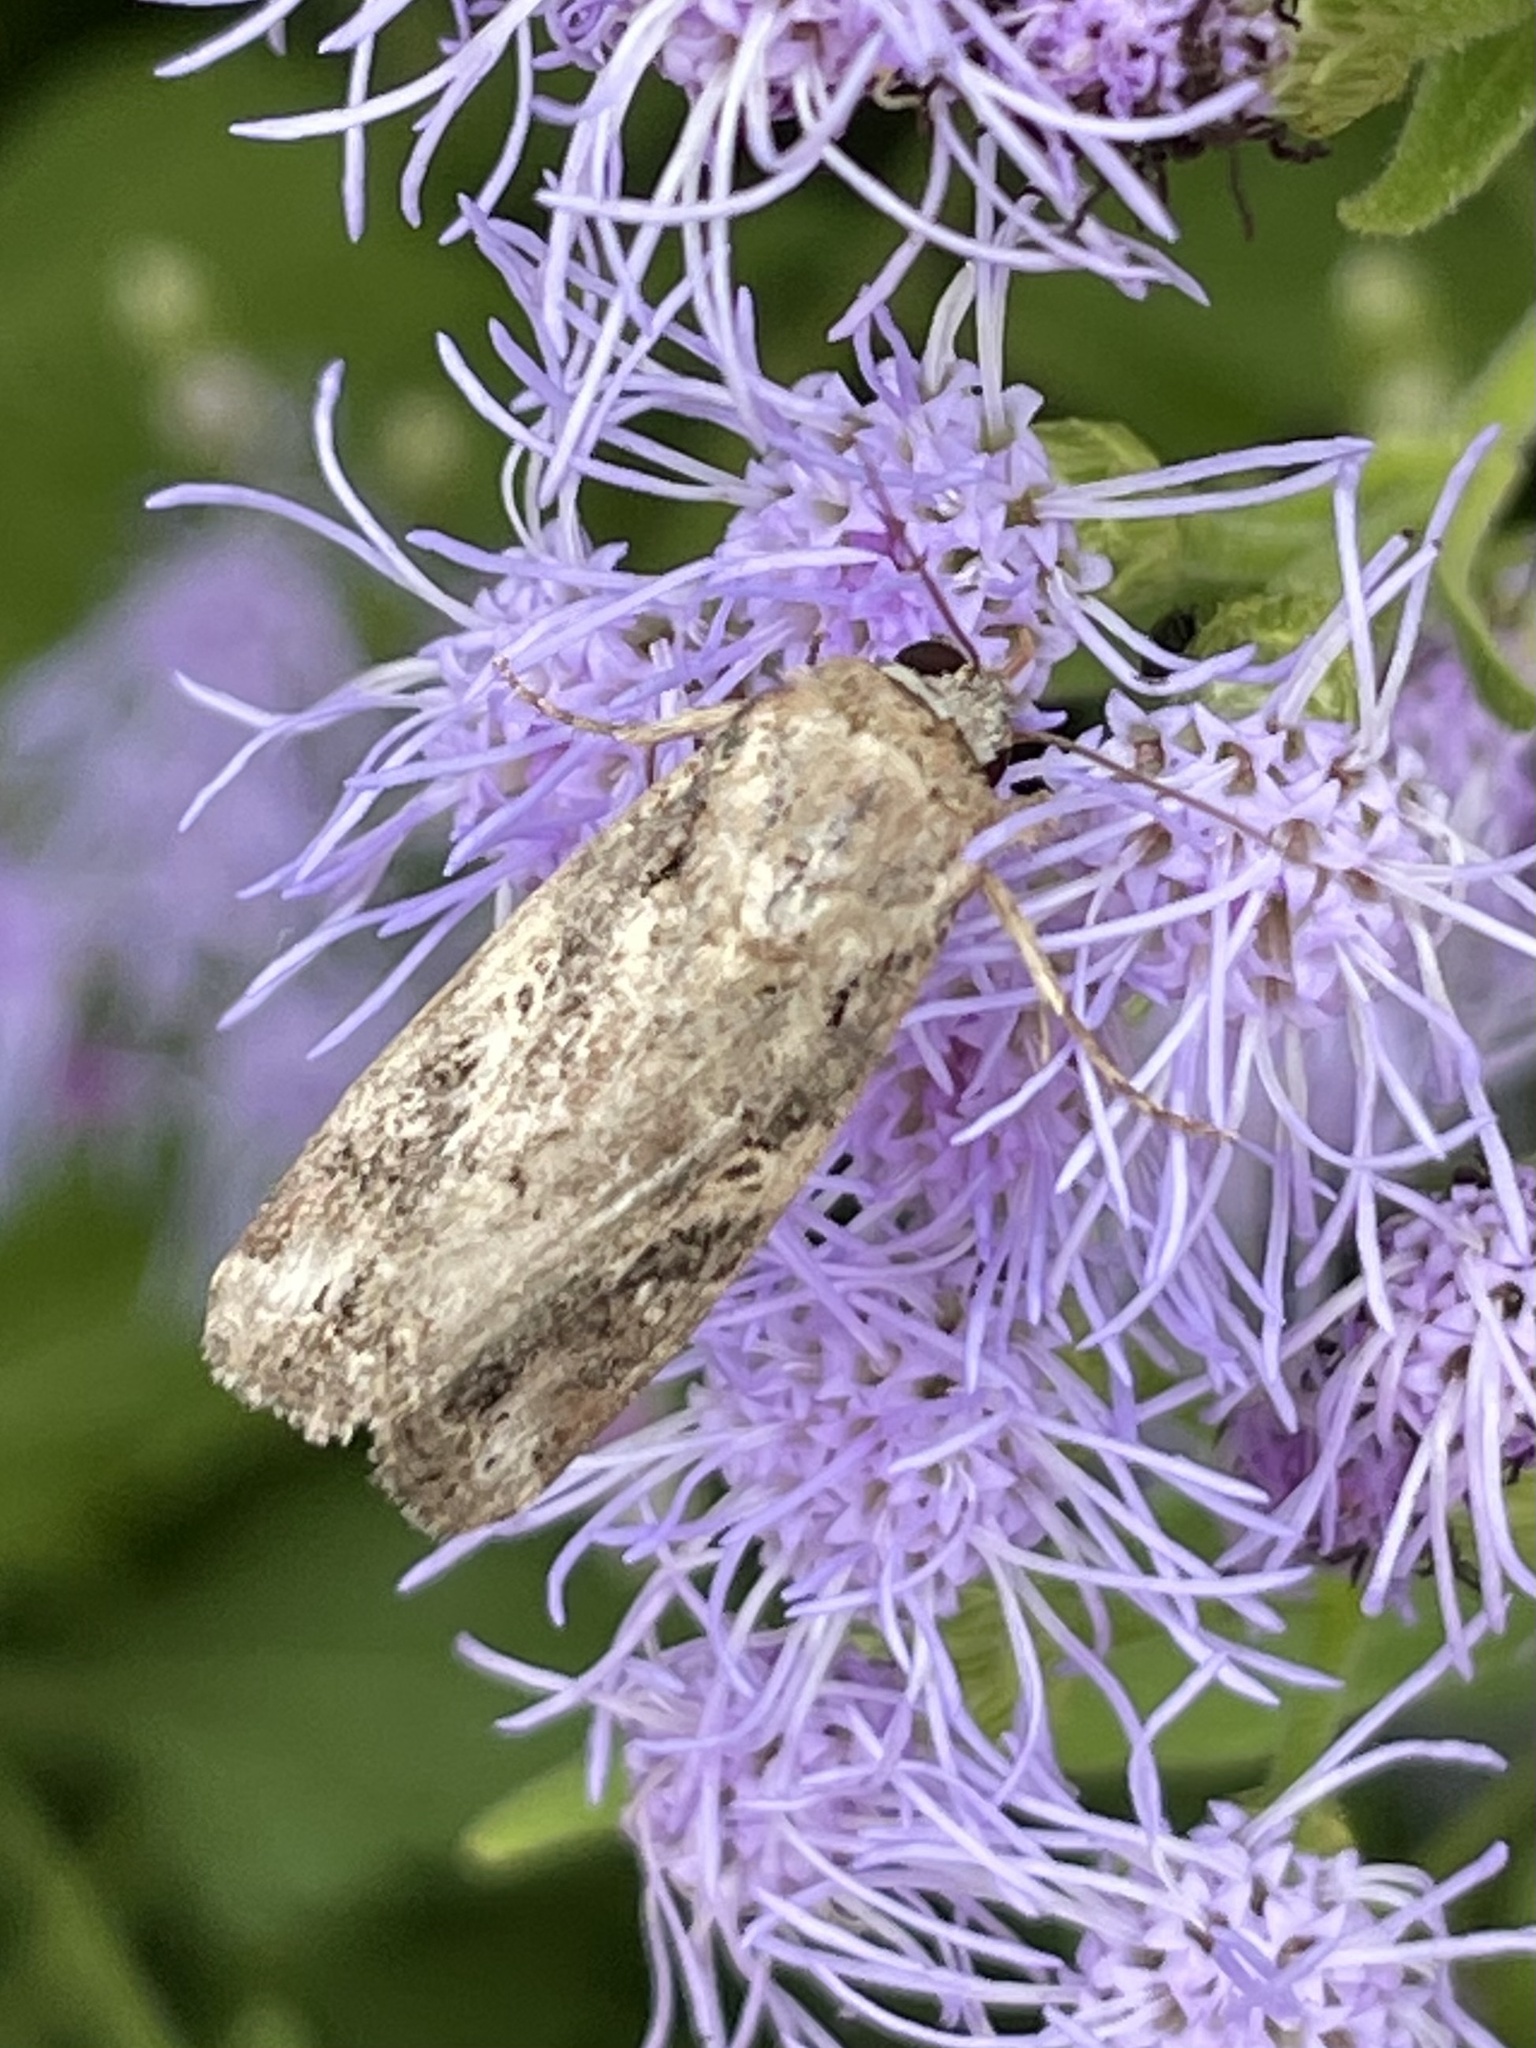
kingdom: Animalia
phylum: Arthropoda
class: Insecta
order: Lepidoptera
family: Noctuidae
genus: Spodoptera
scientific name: Spodoptera frugiperda
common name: Fall armyworm
